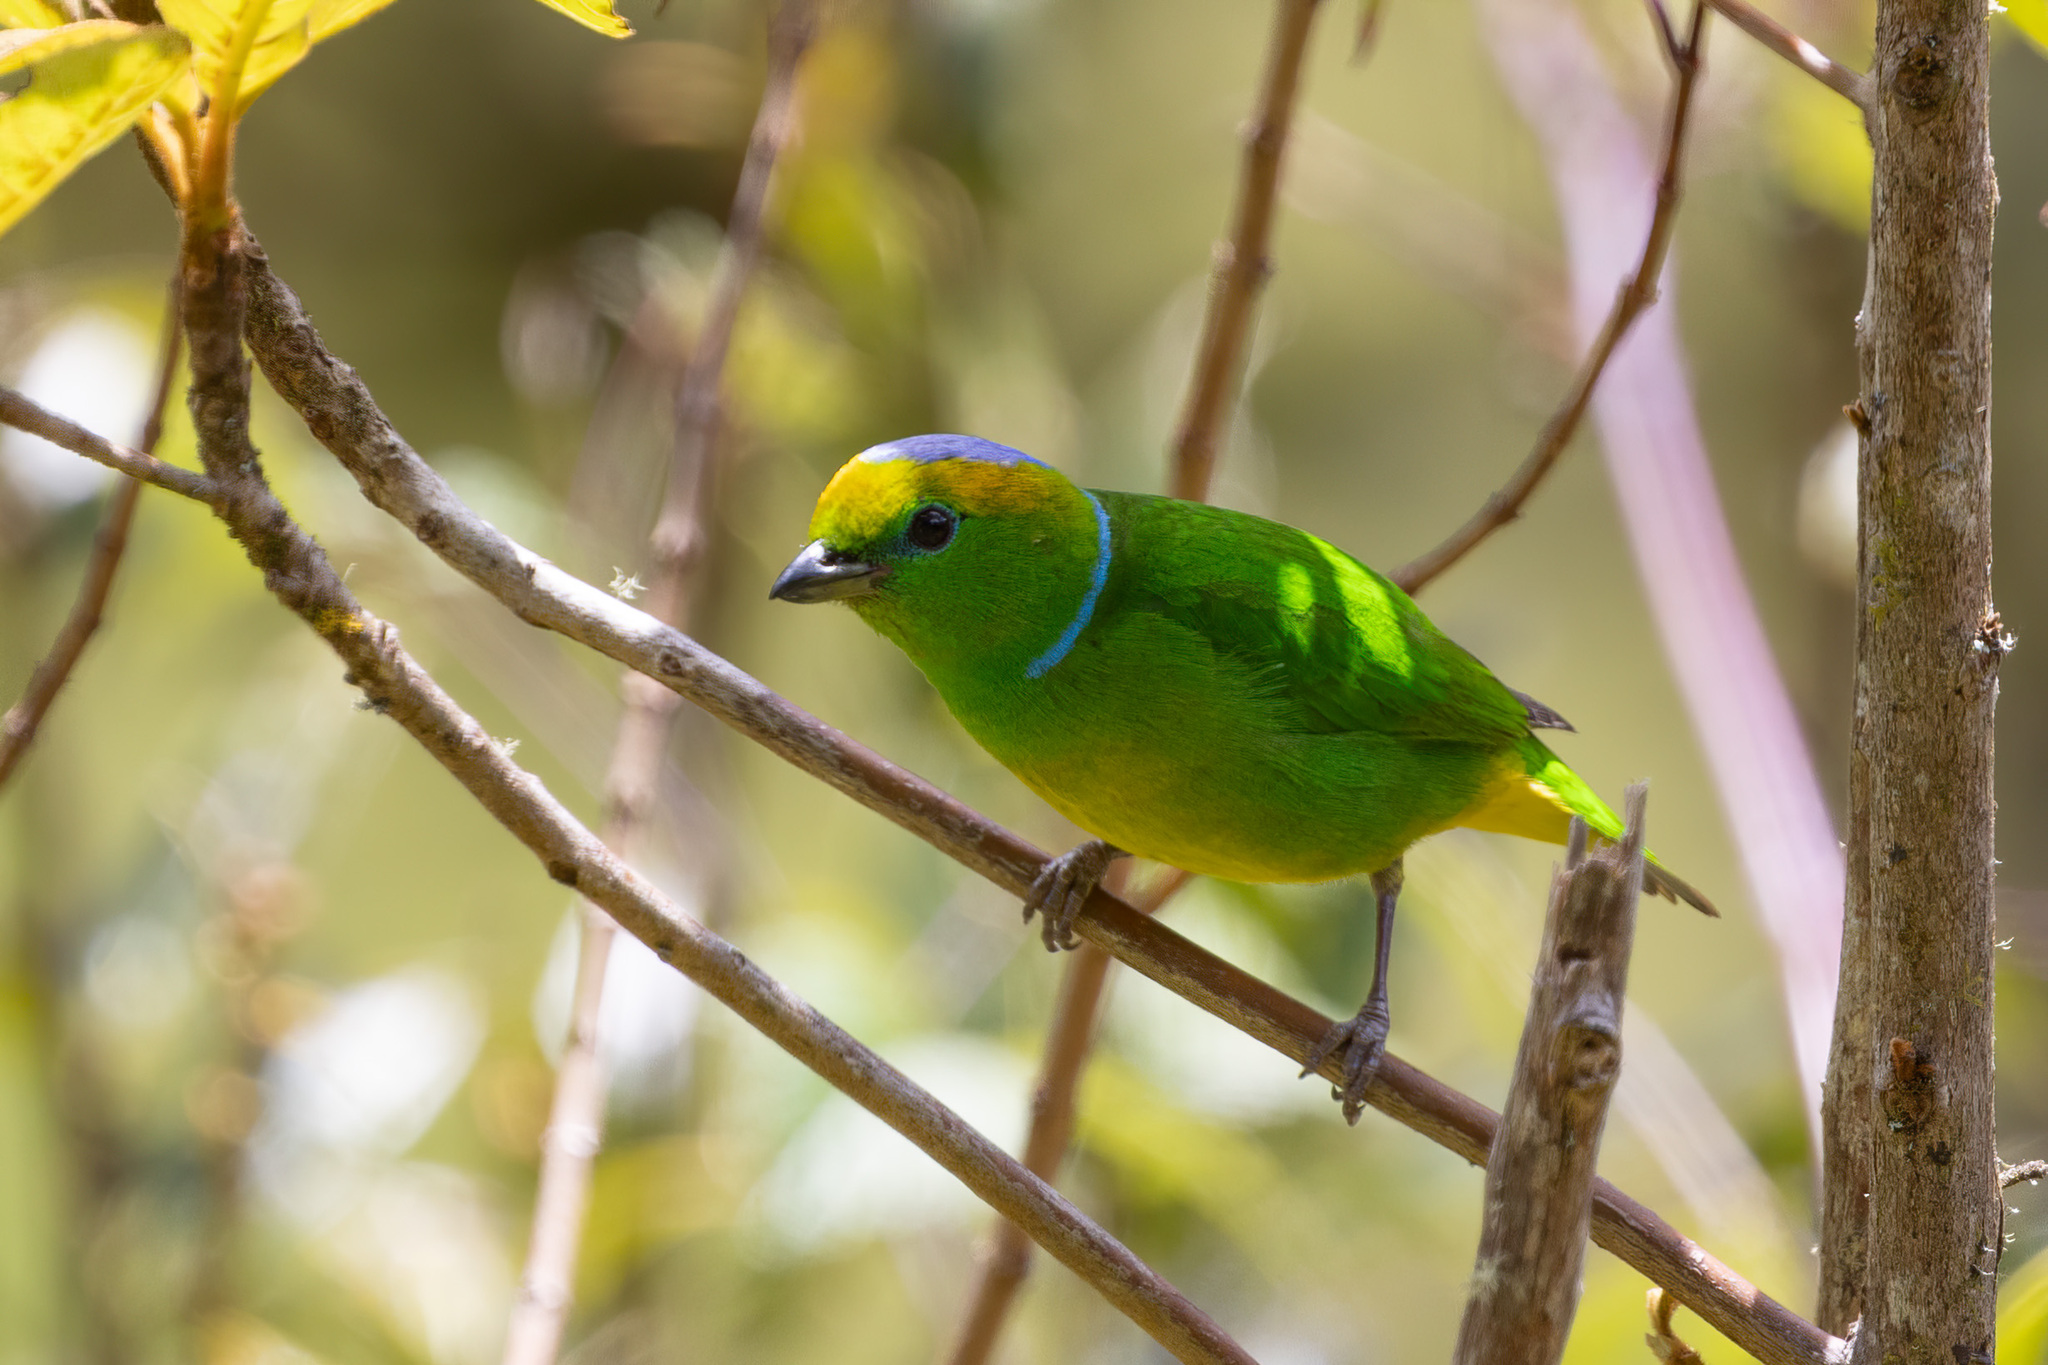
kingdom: Animalia
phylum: Chordata
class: Aves
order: Passeriformes
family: Fringillidae
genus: Chlorophonia
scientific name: Chlorophonia callophrys
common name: Golden-browed chlorophonia
